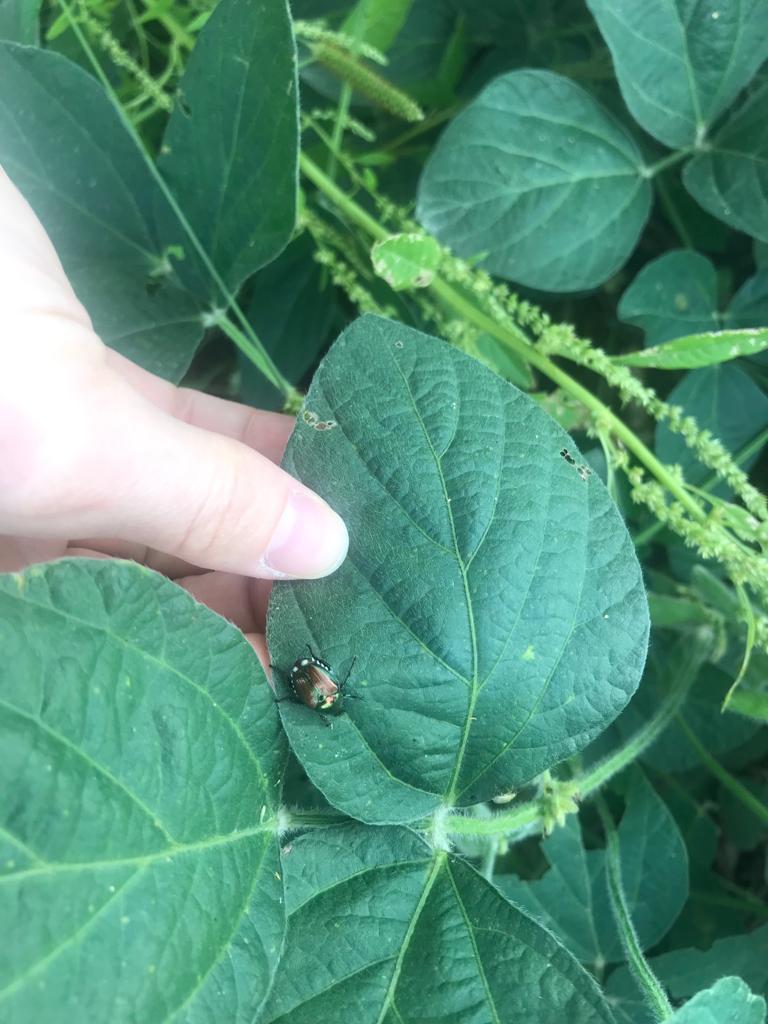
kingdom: Animalia
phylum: Arthropoda
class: Insecta
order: Coleoptera
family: Scarabaeidae
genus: Popillia
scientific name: Popillia japonica
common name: Japanese beetle
